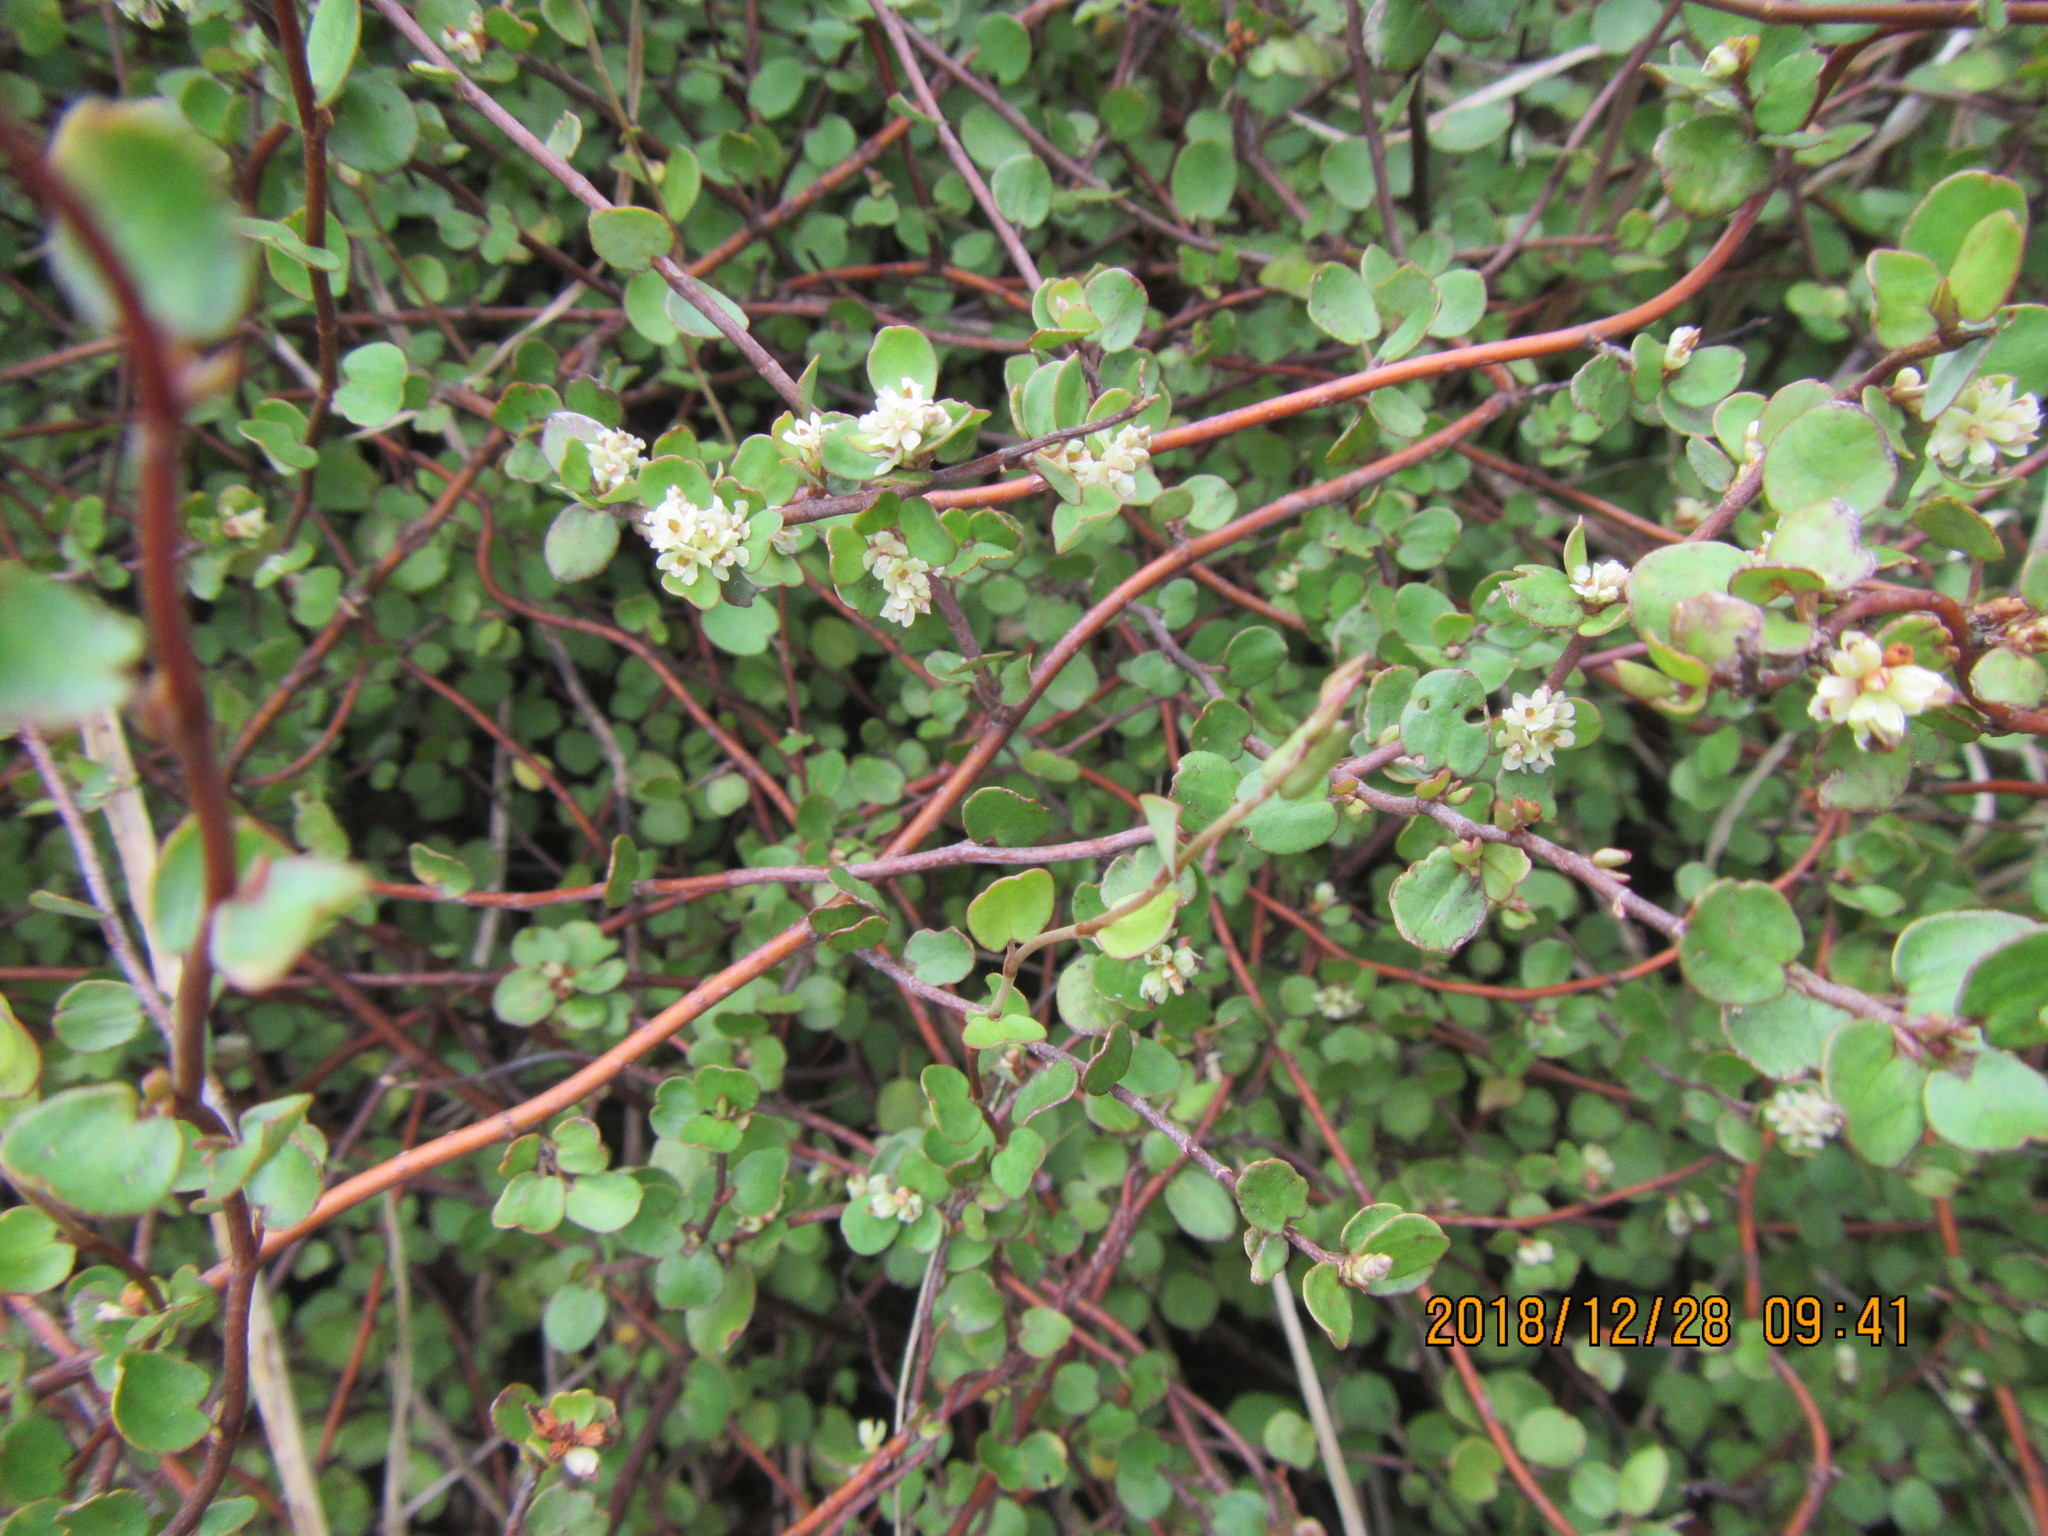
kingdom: Plantae
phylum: Tracheophyta
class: Magnoliopsida
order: Caryophyllales
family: Polygonaceae
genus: Muehlenbeckia
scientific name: Muehlenbeckia complexa
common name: Wireplant
